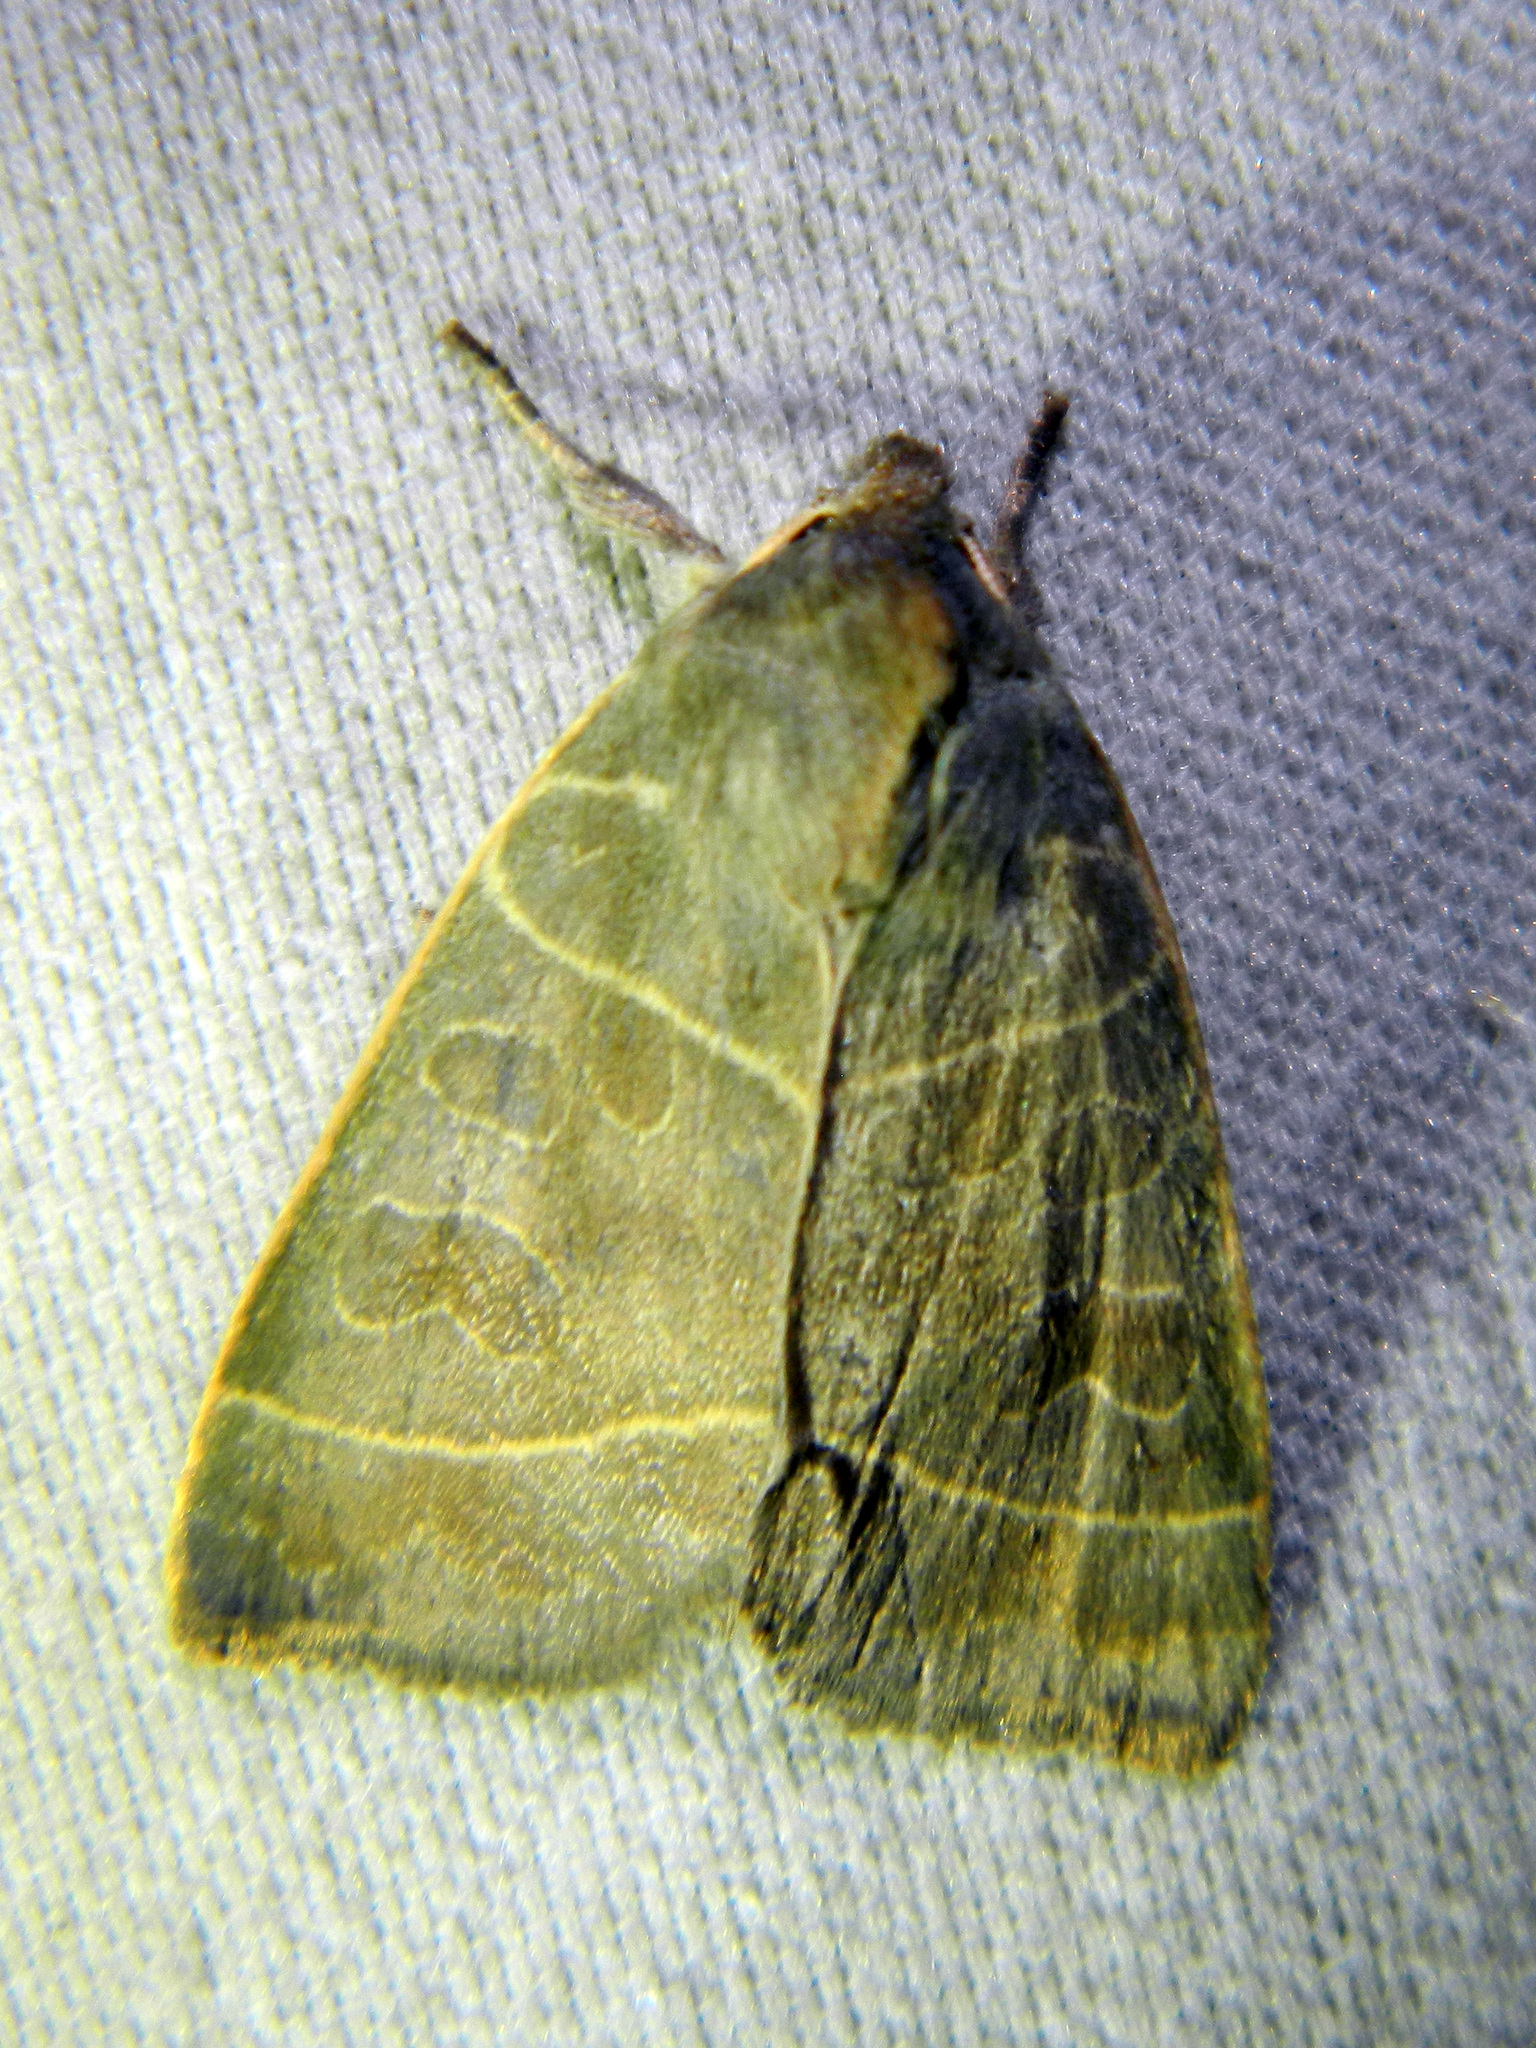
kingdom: Animalia
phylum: Arthropoda
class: Insecta
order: Lepidoptera
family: Noctuidae
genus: Ipimorpha
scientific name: Ipimorpha pleonectusa
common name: Even-lined sallow
